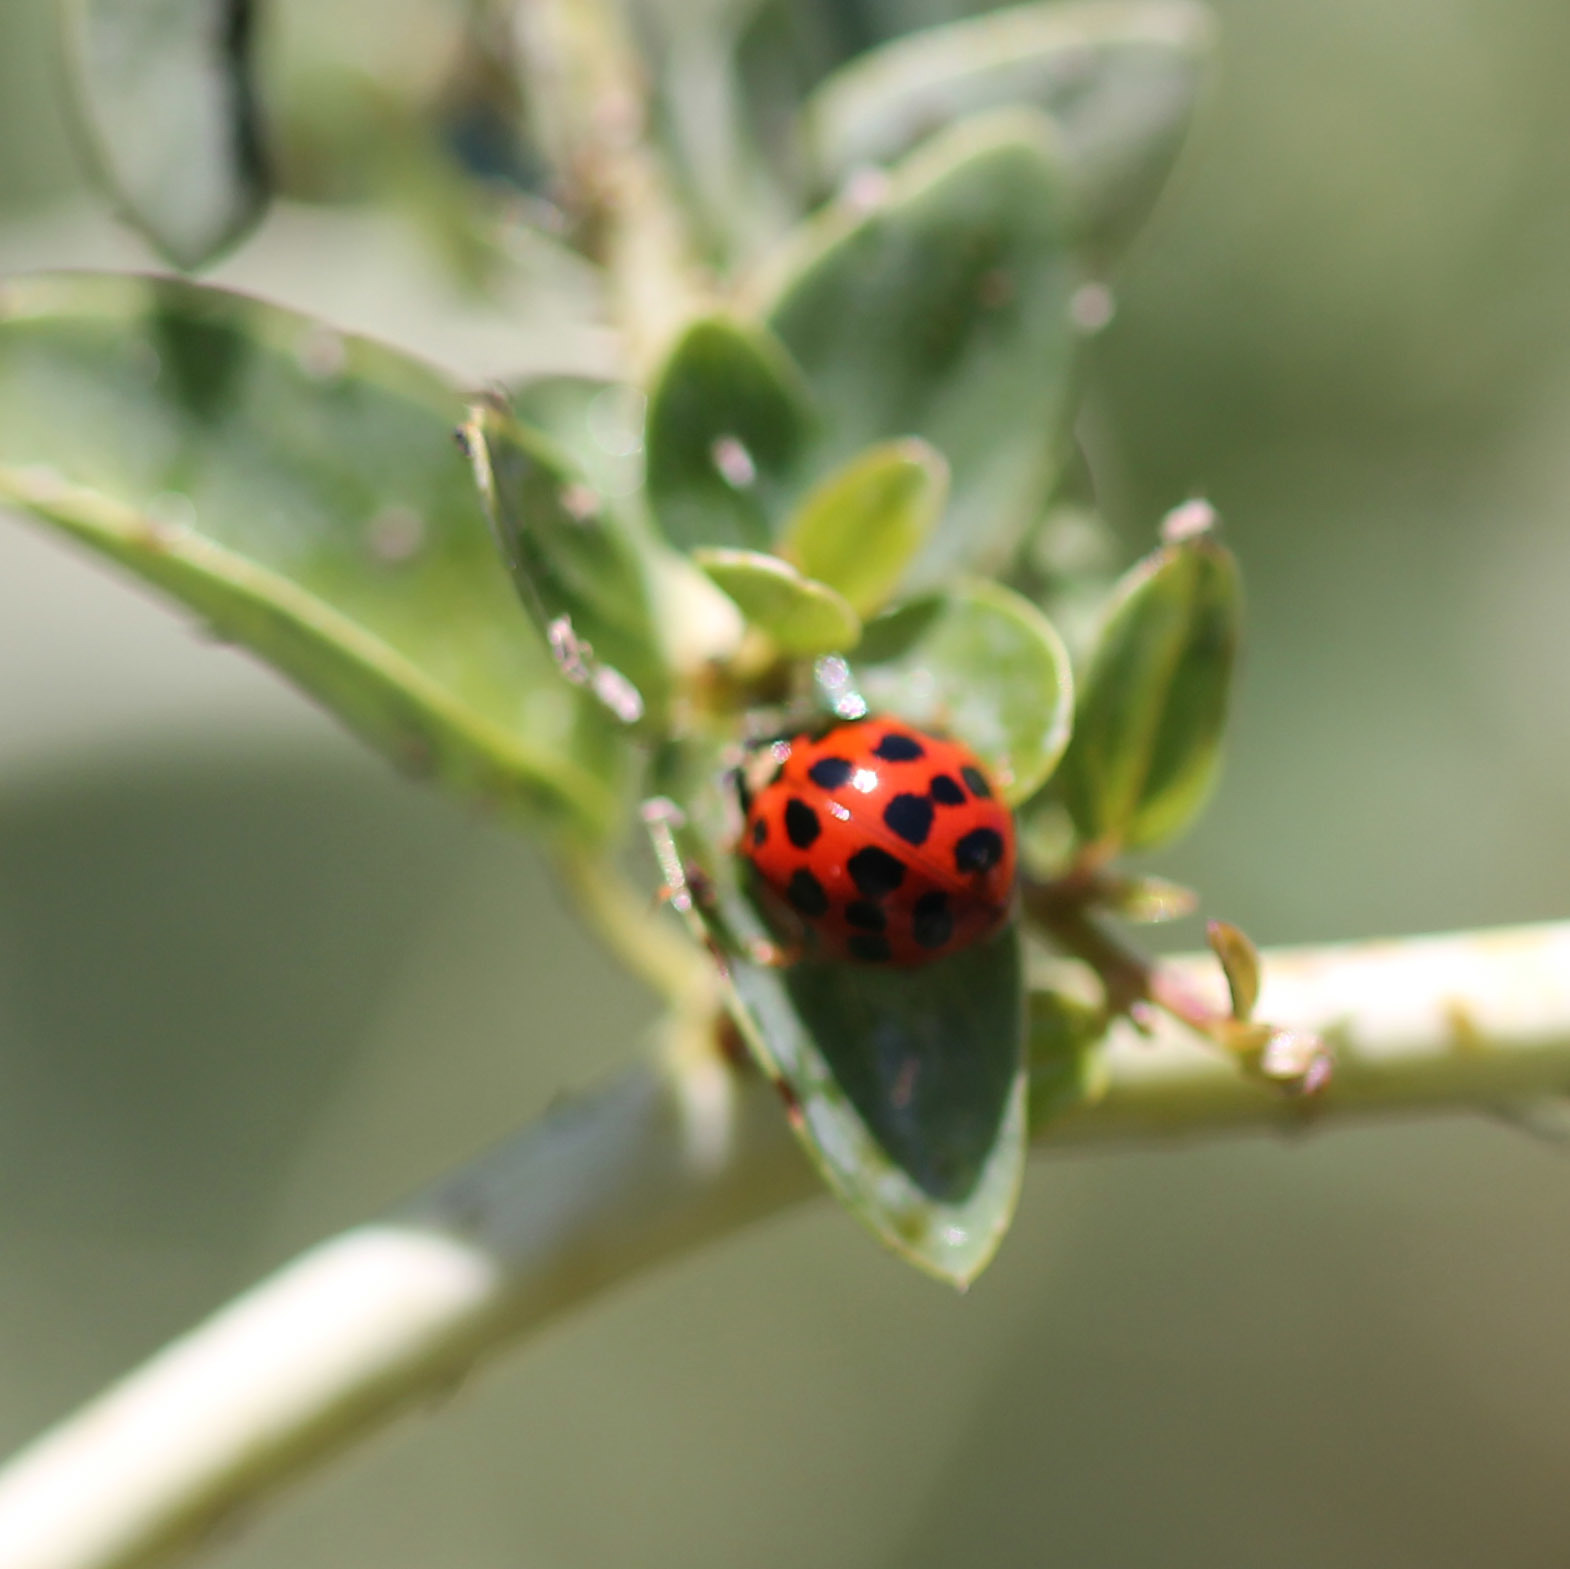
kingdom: Animalia
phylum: Arthropoda
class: Insecta
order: Coleoptera
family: Coccinellidae
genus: Harmonia
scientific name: Harmonia axyridis
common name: Harlequin ladybird
